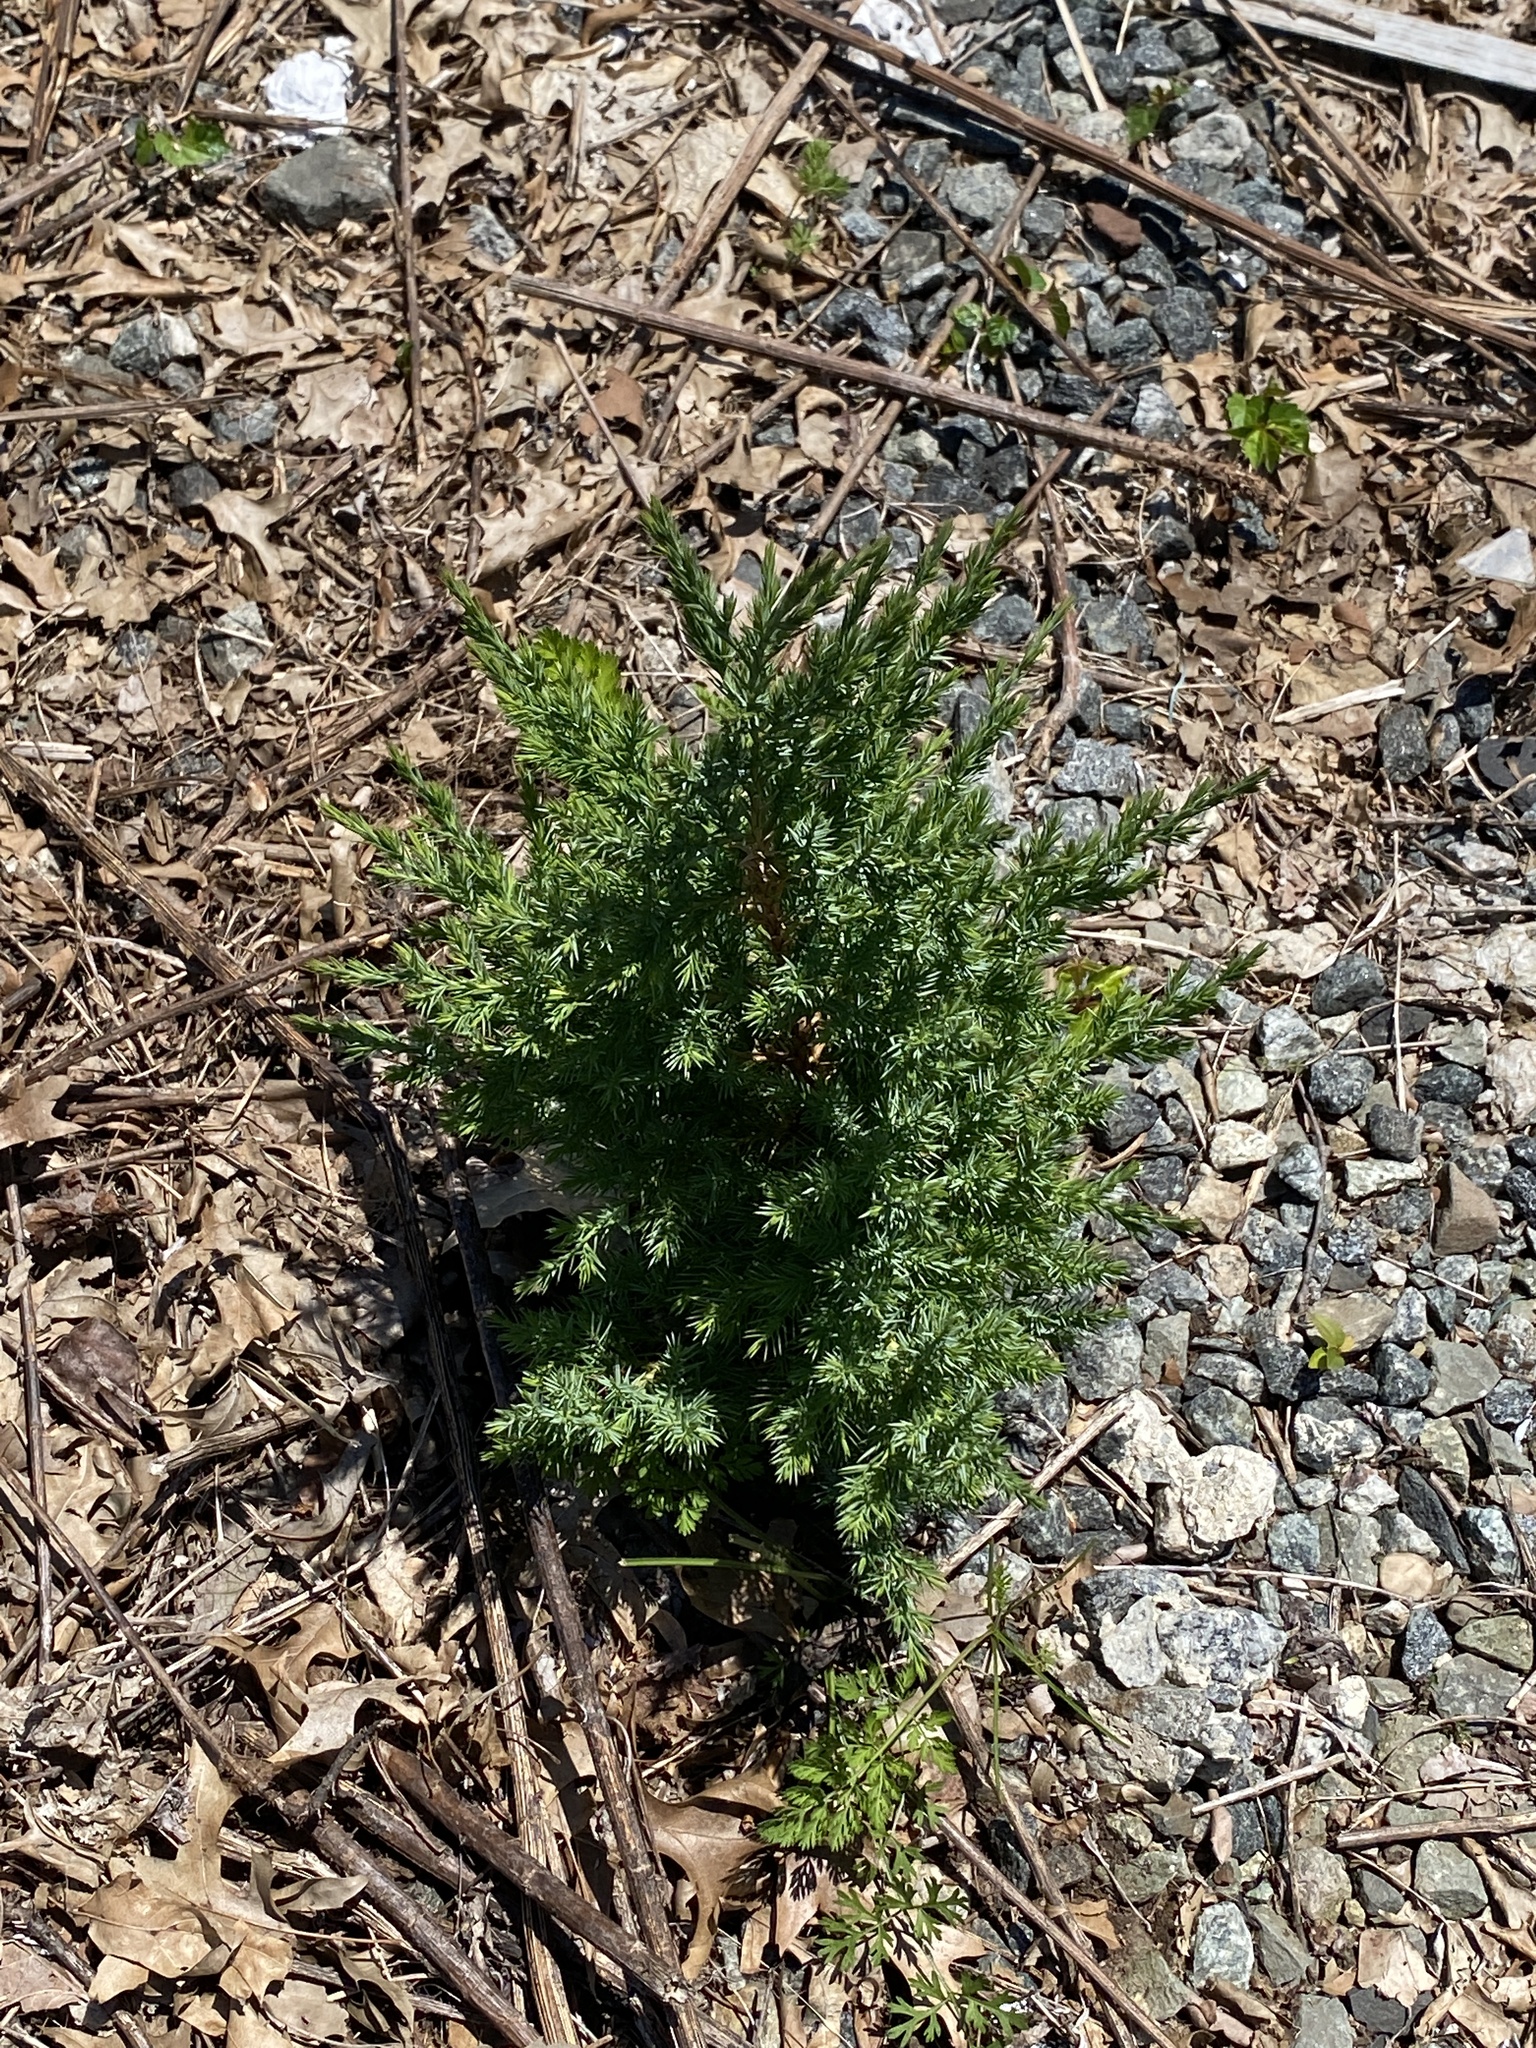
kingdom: Plantae
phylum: Tracheophyta
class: Pinopsida
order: Pinales
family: Cupressaceae
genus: Juniperus
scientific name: Juniperus virginiana
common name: Red juniper
